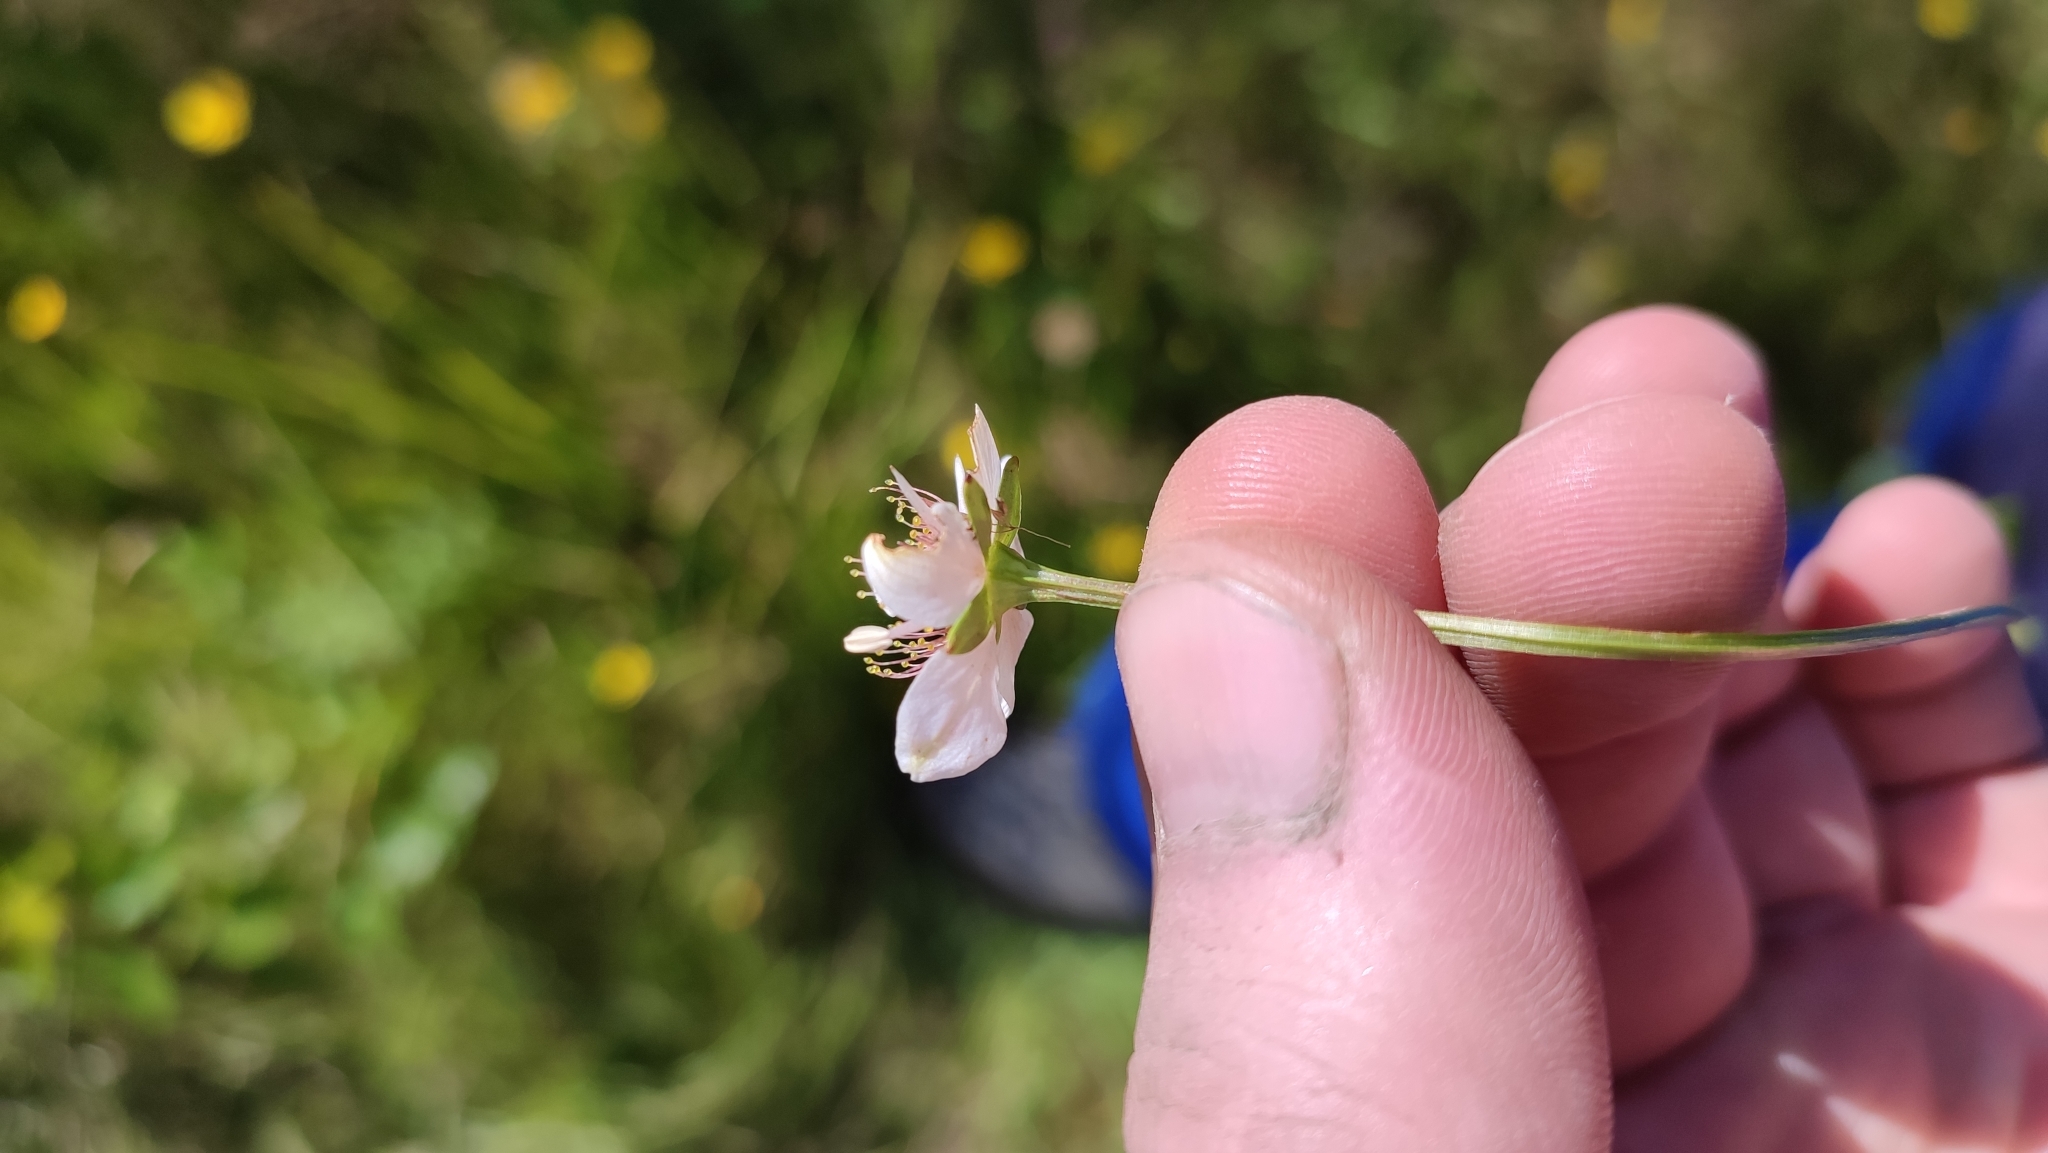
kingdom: Plantae
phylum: Tracheophyta
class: Magnoliopsida
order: Celastrales
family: Parnassiaceae
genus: Parnassia
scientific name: Parnassia palustris
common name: Grass-of-parnassus
